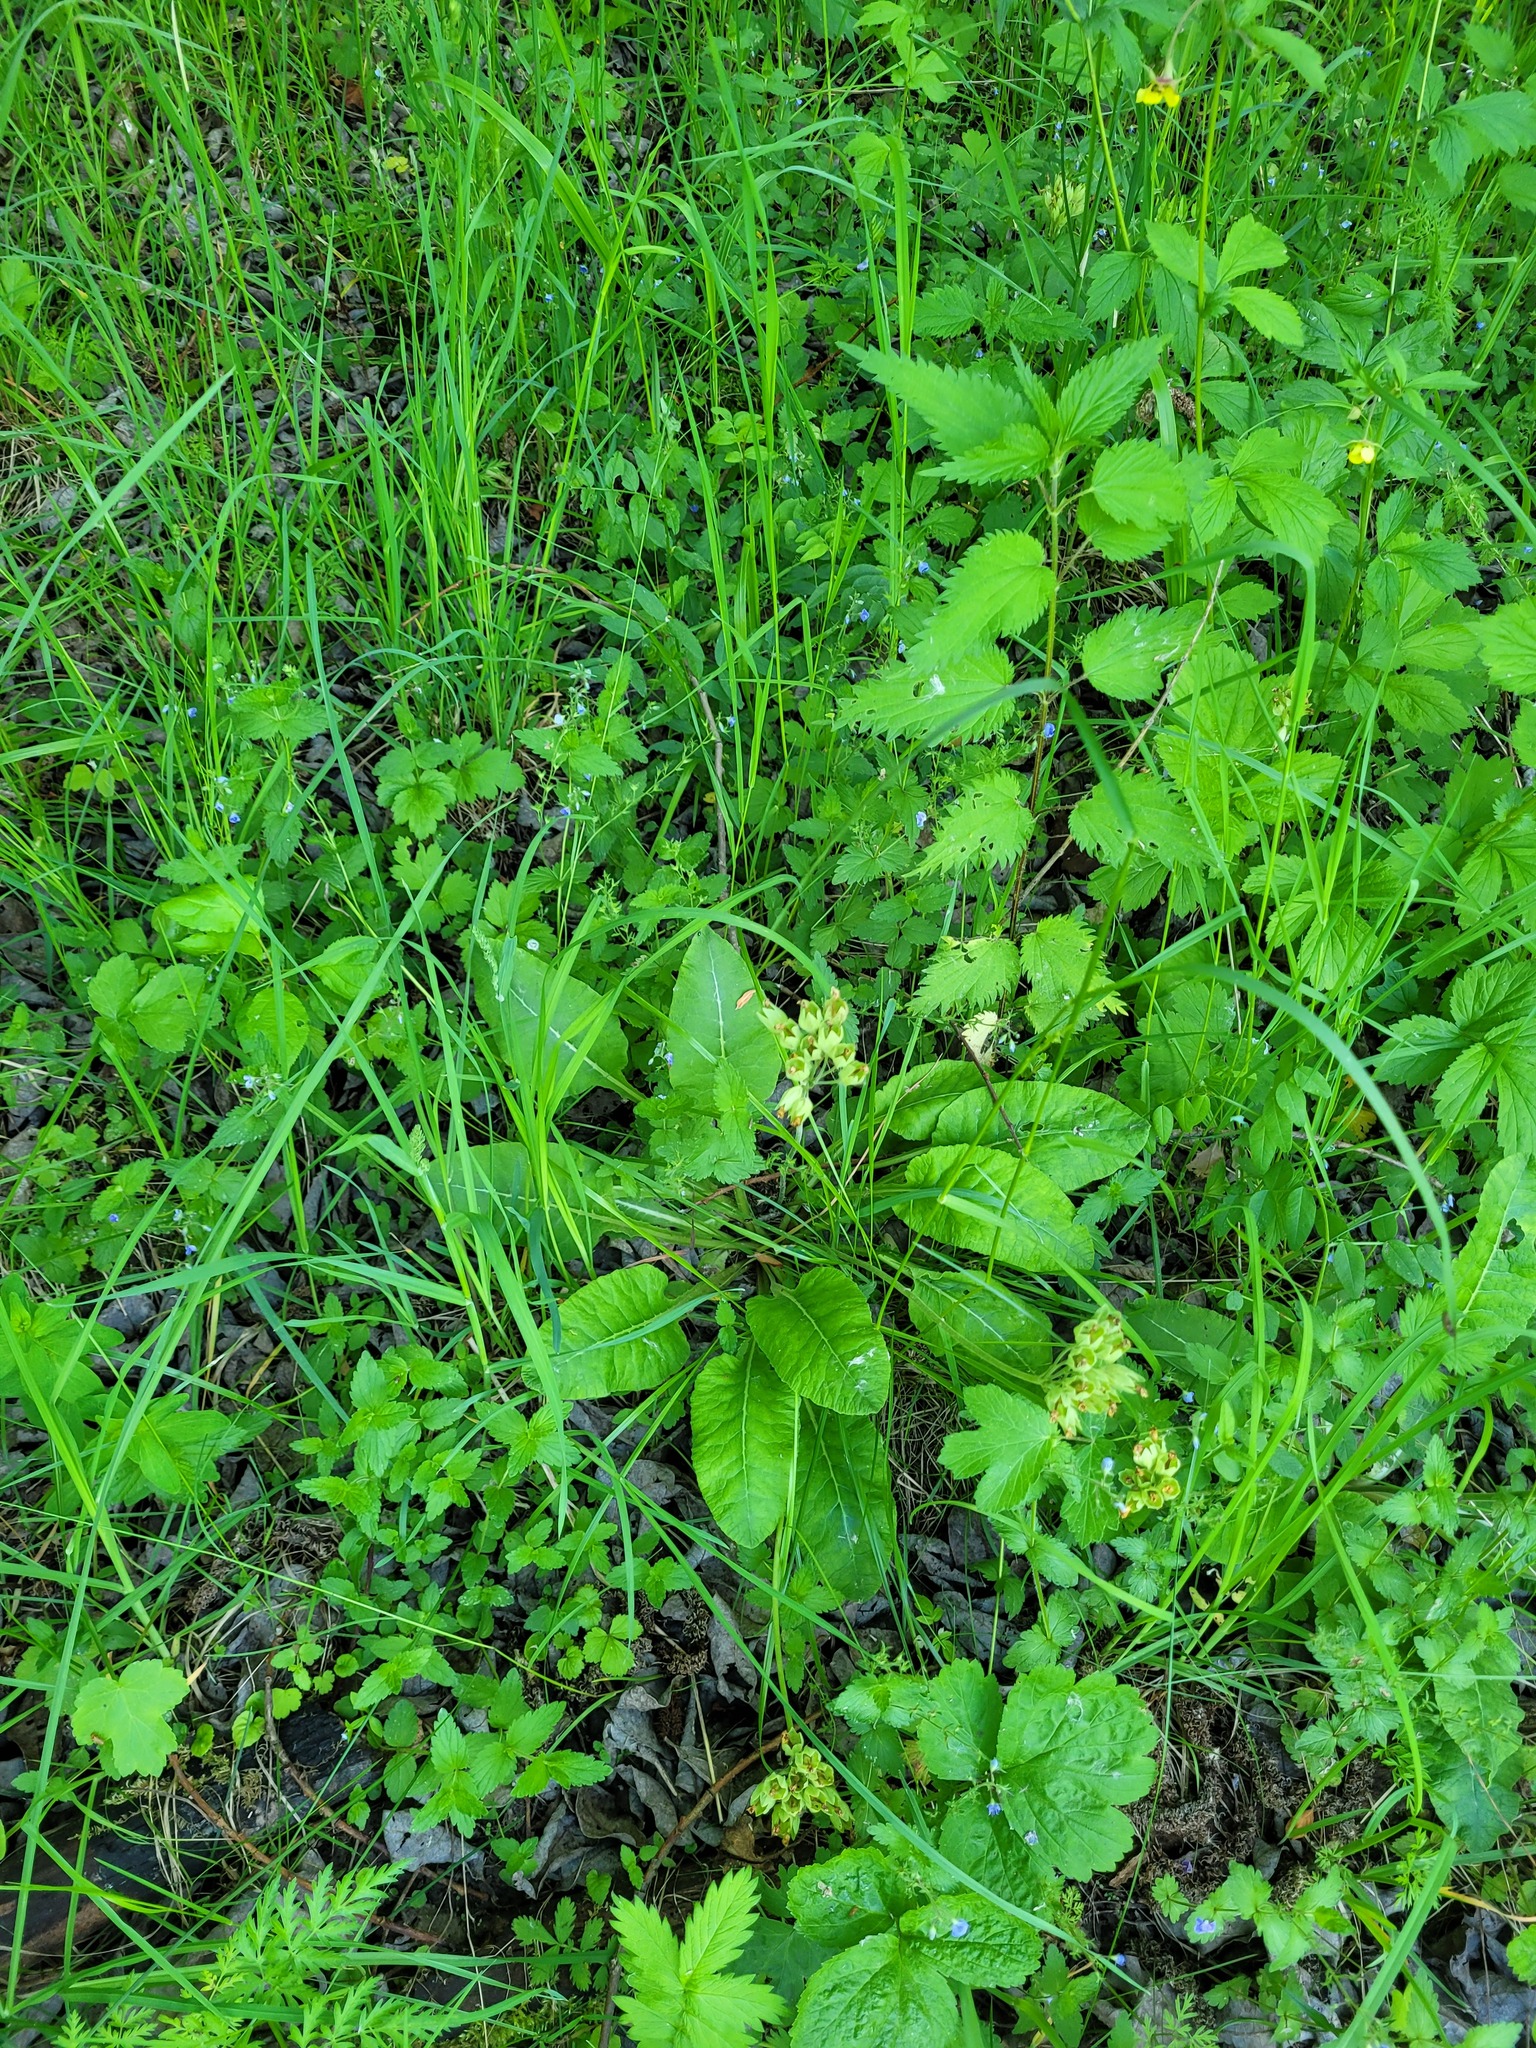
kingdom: Plantae
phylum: Tracheophyta
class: Magnoliopsida
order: Ericales
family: Primulaceae
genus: Primula
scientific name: Primula veris
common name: Cowslip
